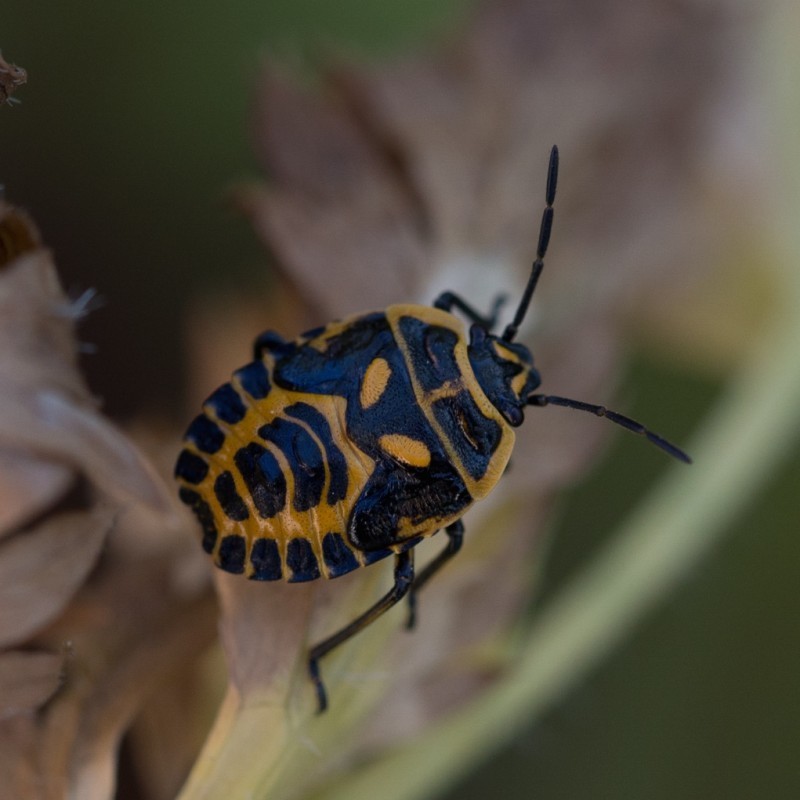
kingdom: Animalia
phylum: Arthropoda
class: Insecta
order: Hemiptera
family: Pentatomidae
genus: Eurydema
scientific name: Eurydema ventralis
